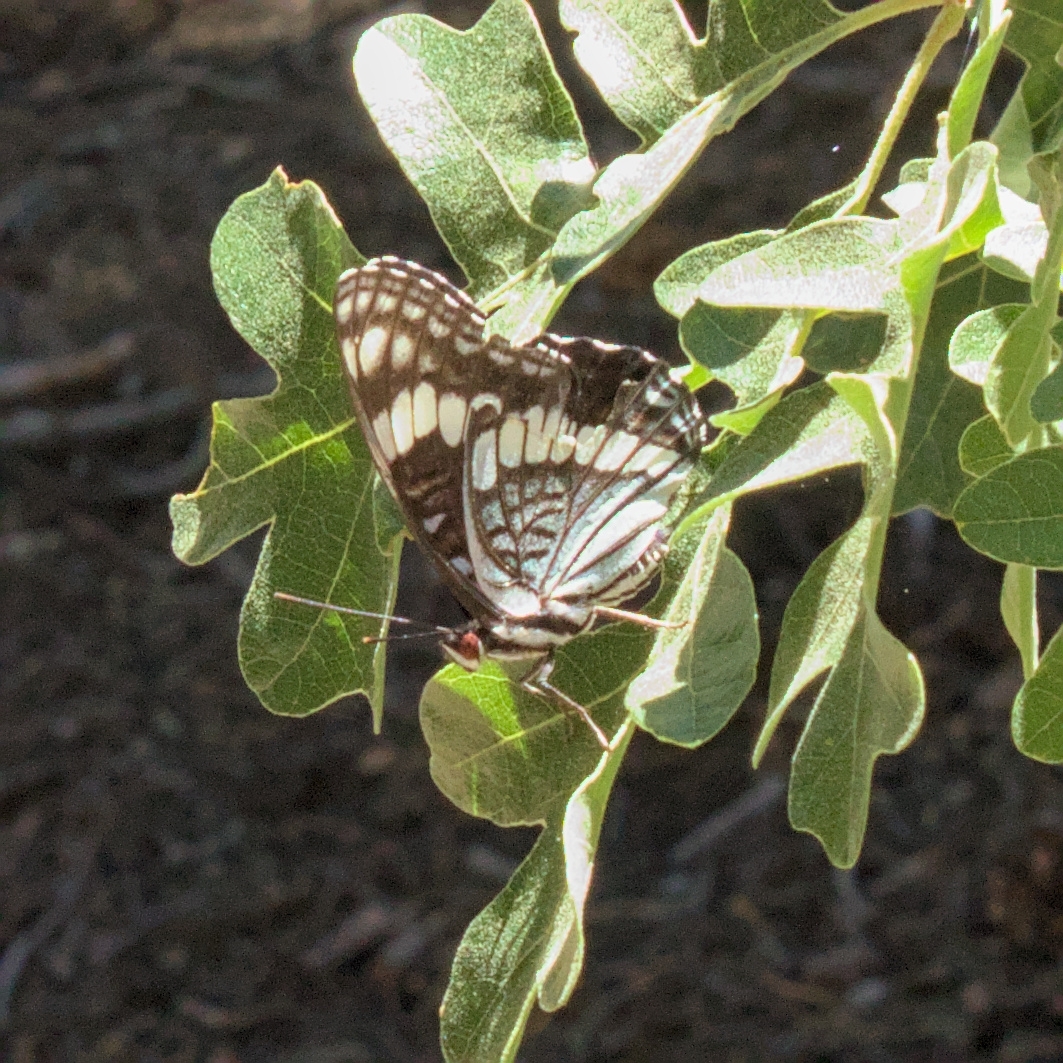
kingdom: Animalia
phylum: Arthropoda
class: Insecta
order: Lepidoptera
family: Nymphalidae
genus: Limenitis
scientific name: Limenitis weidemeyerii
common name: Weidemeyer's admiral
